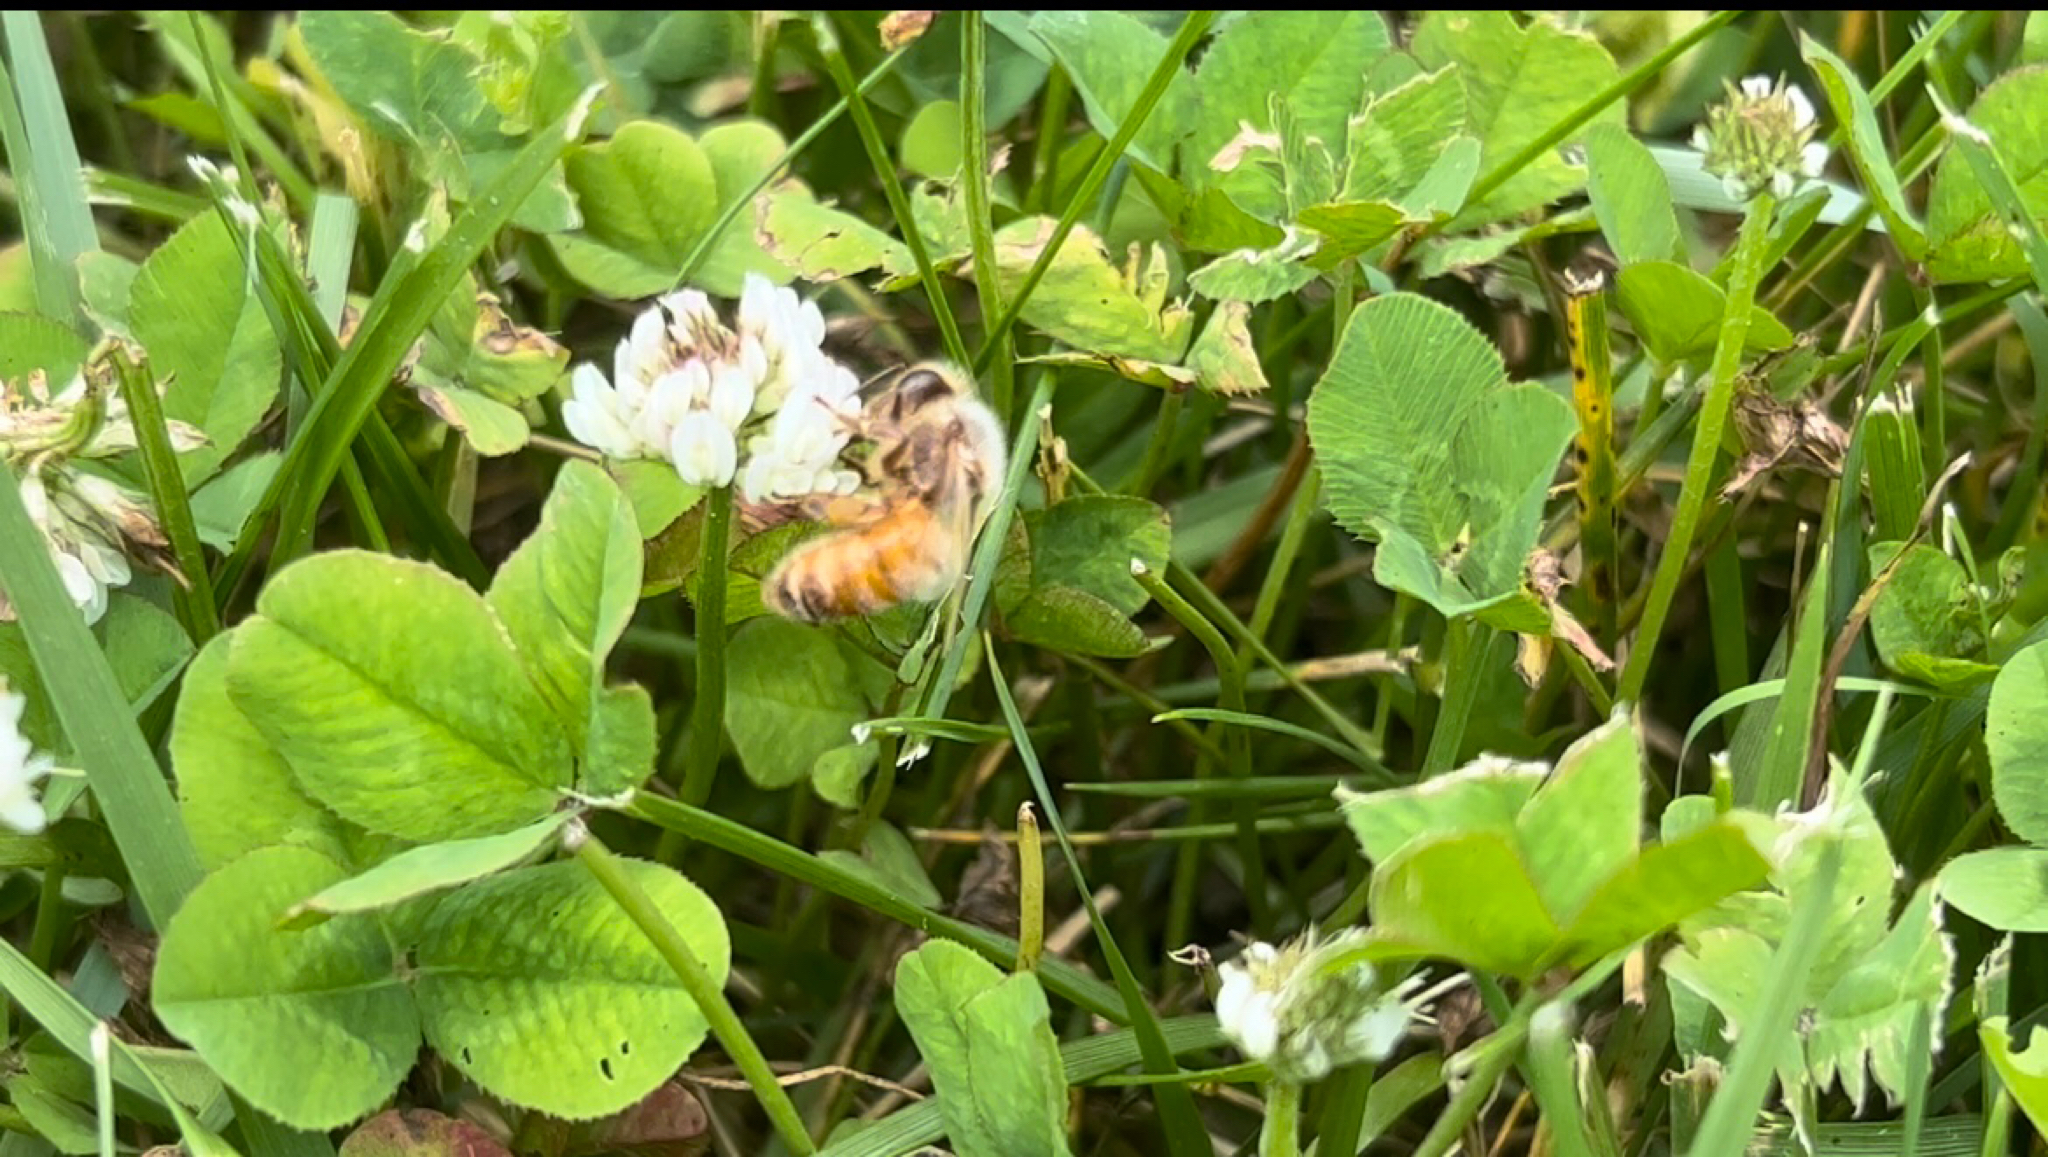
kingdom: Animalia
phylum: Arthropoda
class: Insecta
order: Hymenoptera
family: Apidae
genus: Apis
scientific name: Apis mellifera
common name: Honey bee
